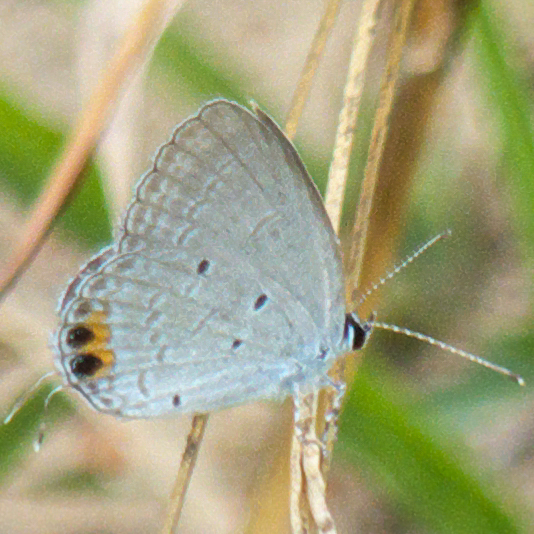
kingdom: Animalia
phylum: Arthropoda
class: Insecta
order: Lepidoptera
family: Lycaenidae
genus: Everes
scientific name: Everes lacturnus
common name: Orange-tipped pea-blue
